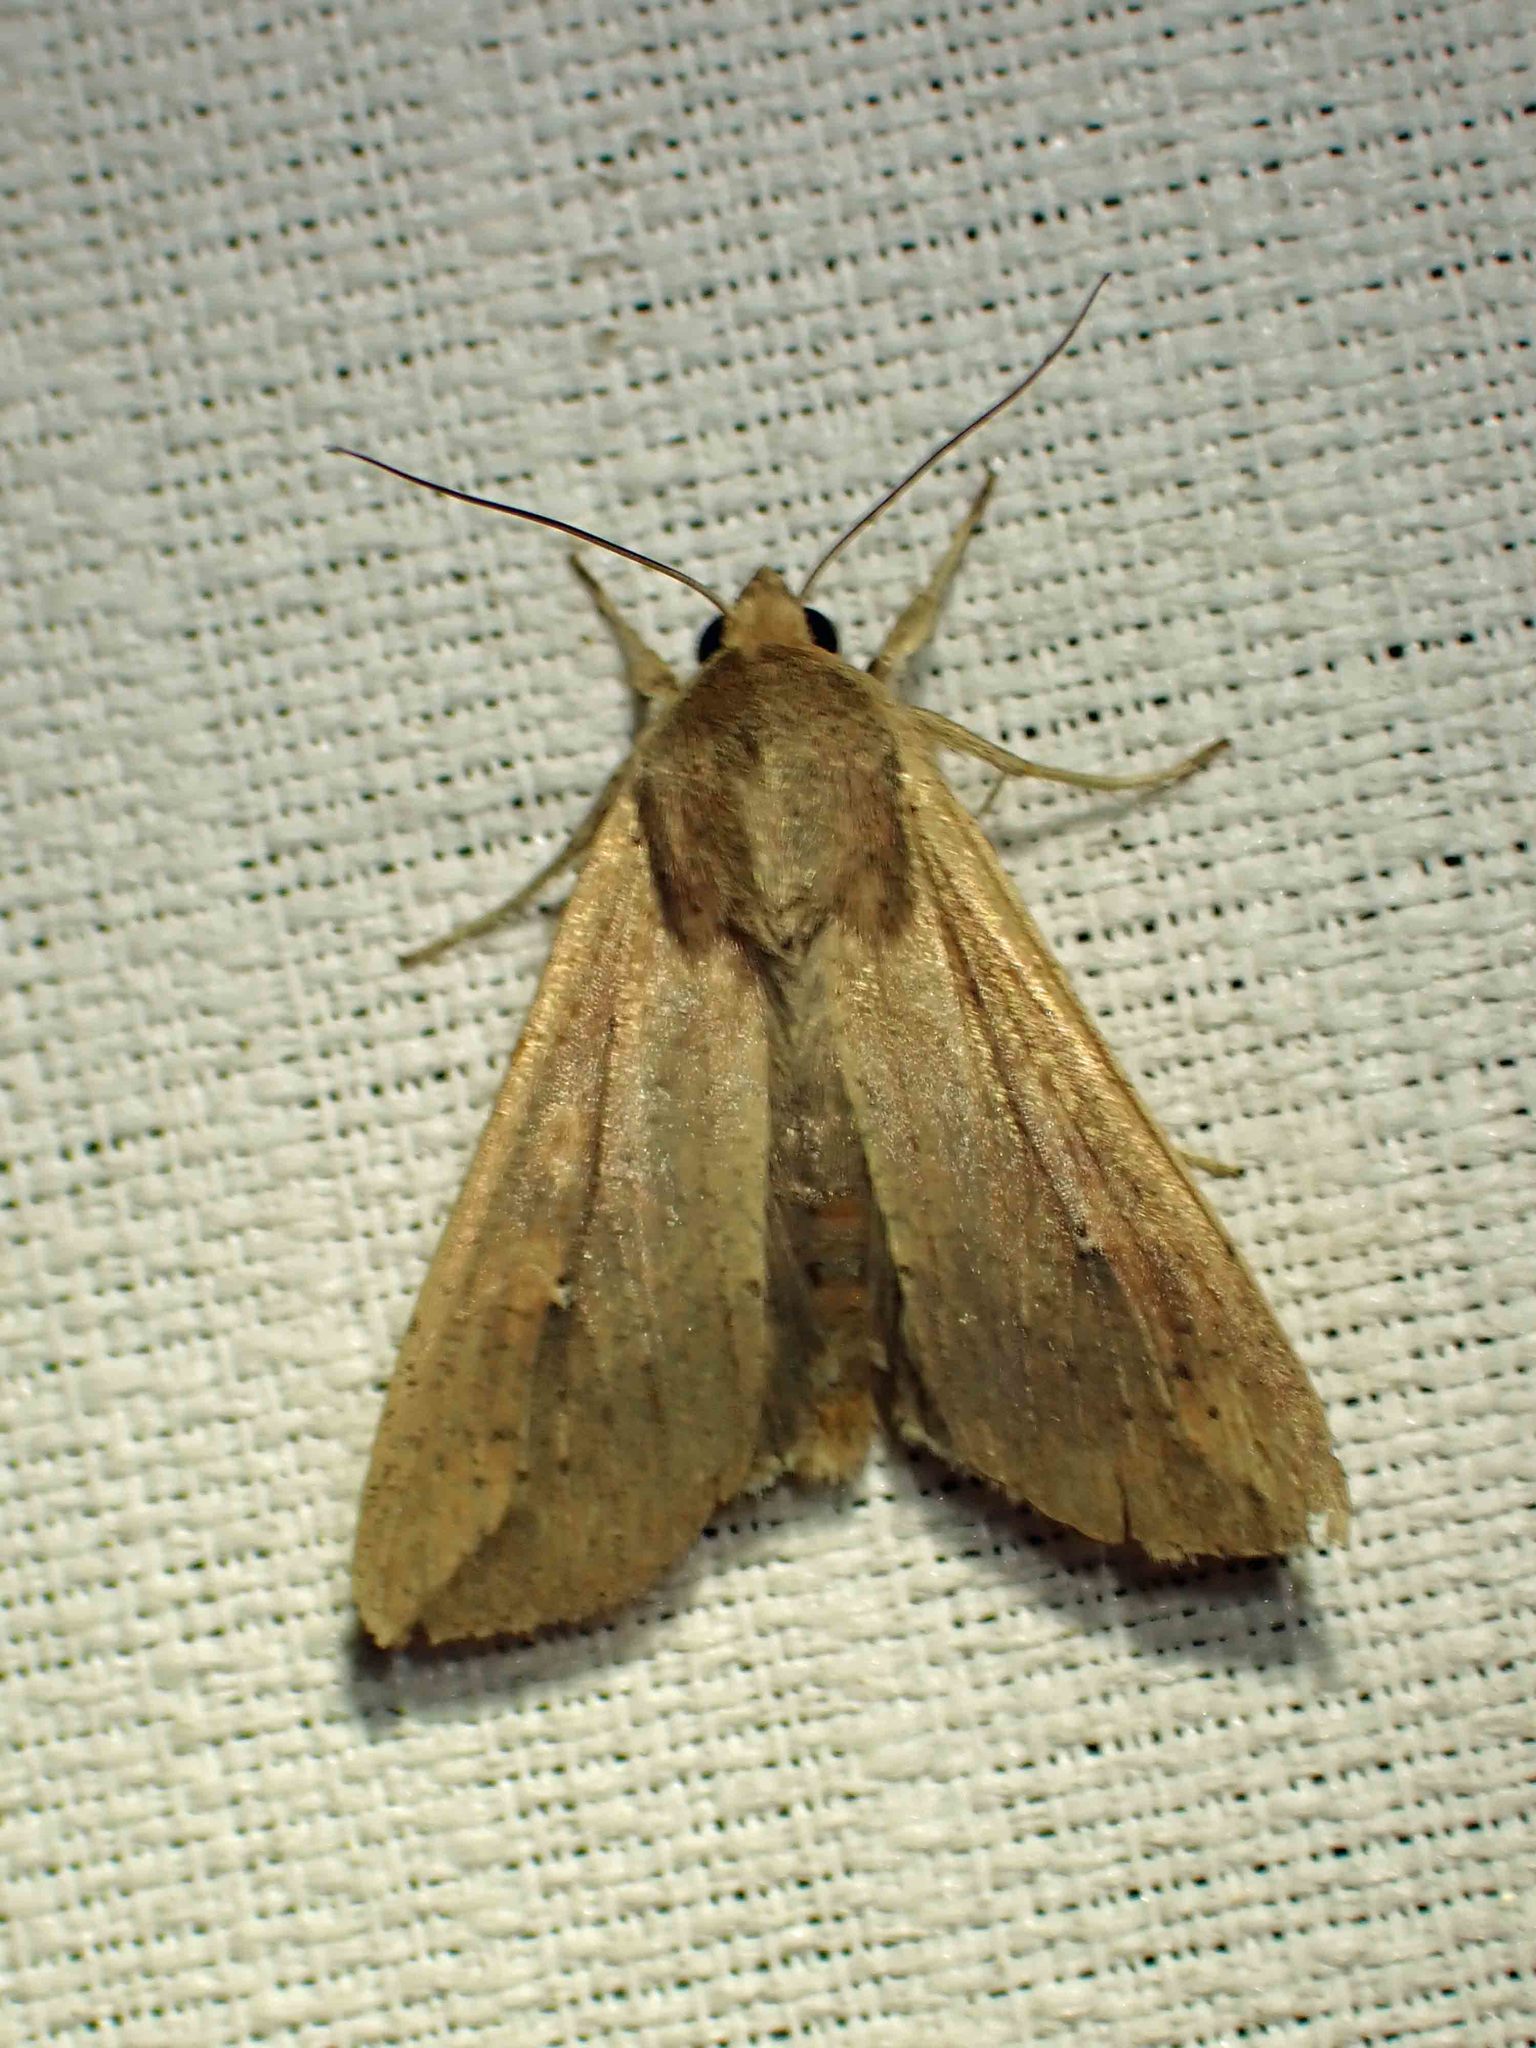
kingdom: Animalia
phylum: Arthropoda
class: Insecta
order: Lepidoptera
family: Noctuidae
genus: Mythimna
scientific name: Mythimna unipuncta
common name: White-speck
